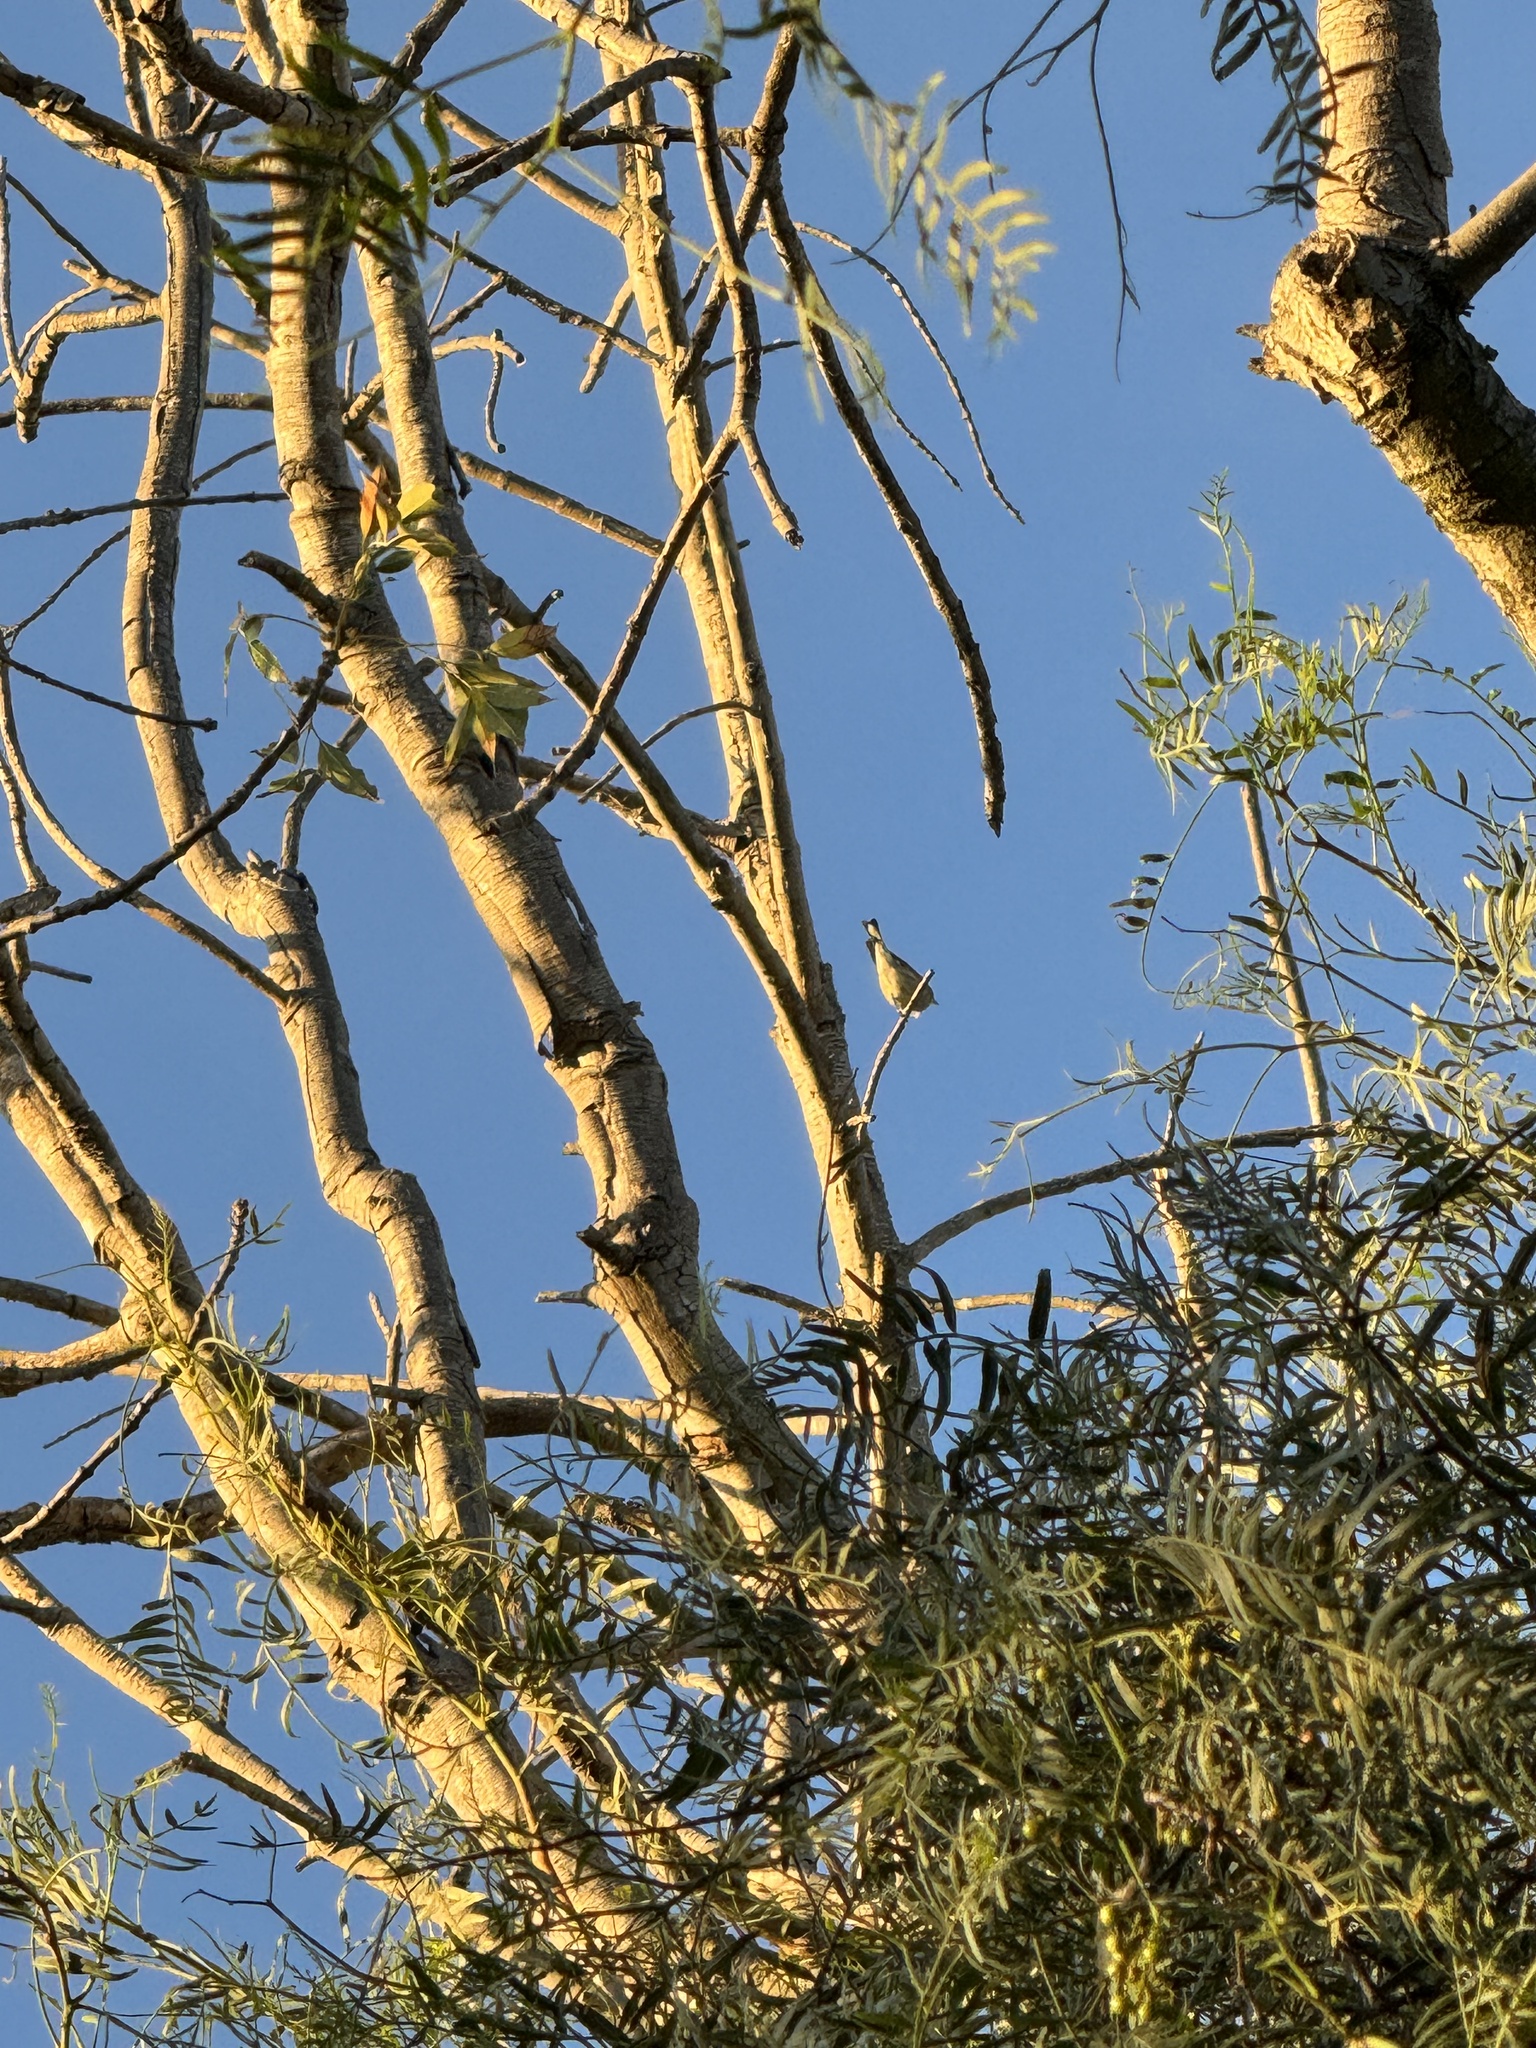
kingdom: Animalia
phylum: Chordata
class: Aves
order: Passeriformes
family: Parulidae
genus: Leiothlypis
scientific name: Leiothlypis celata
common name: Orange-crowned warbler
